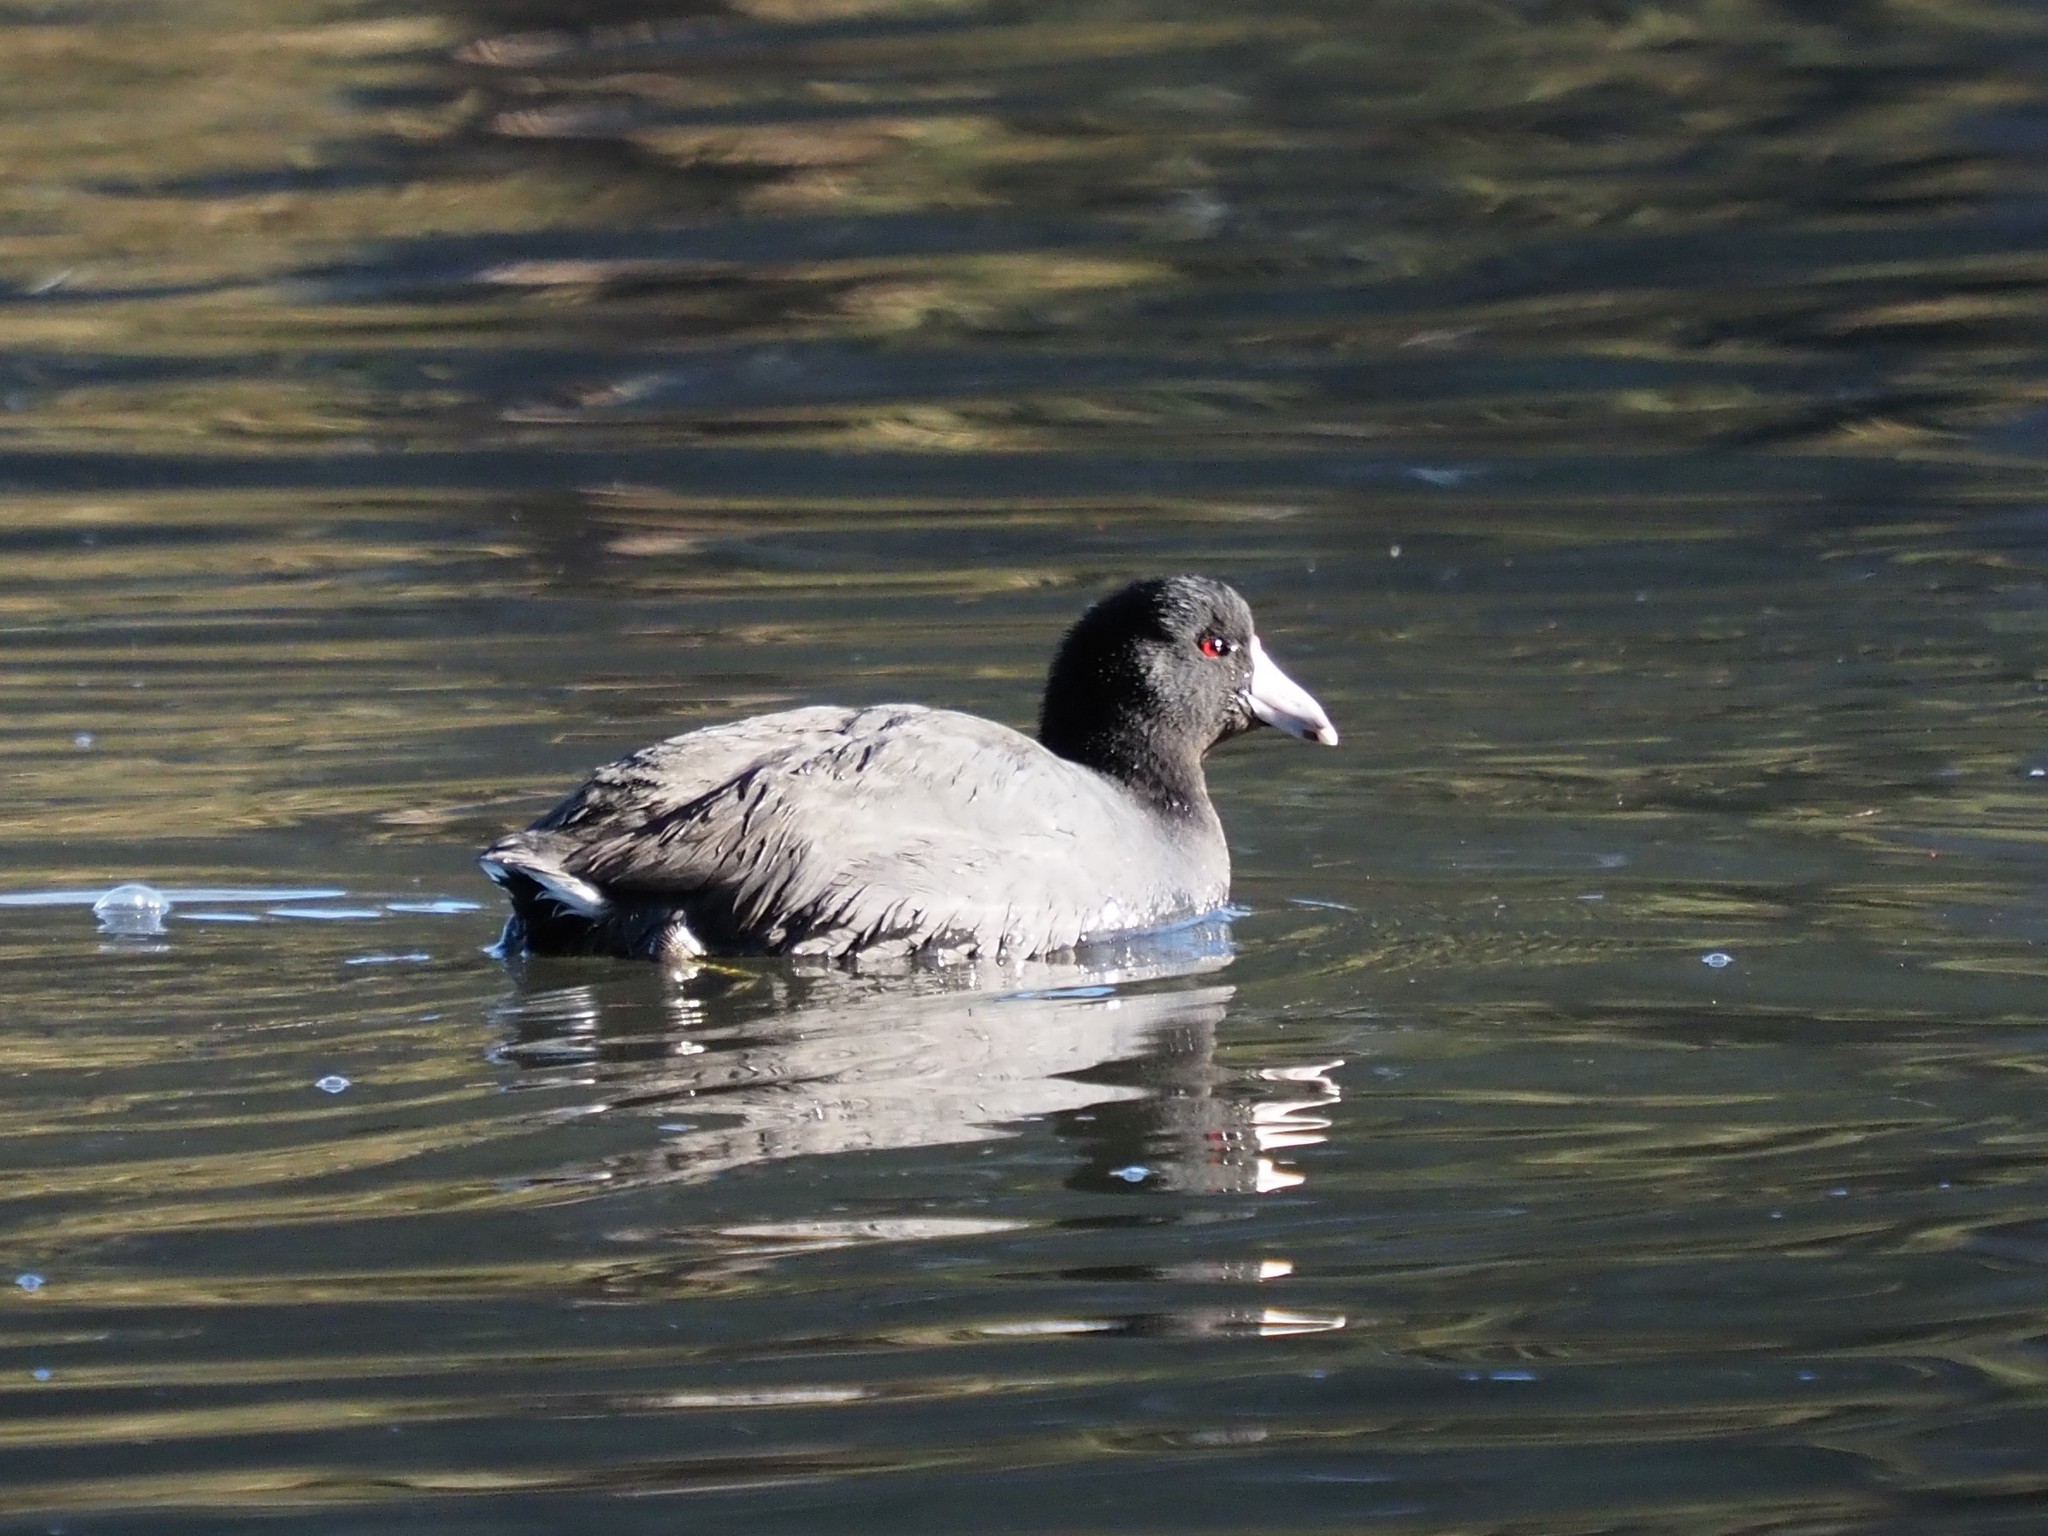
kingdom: Animalia
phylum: Chordata
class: Aves
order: Gruiformes
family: Rallidae
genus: Fulica
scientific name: Fulica americana
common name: American coot
